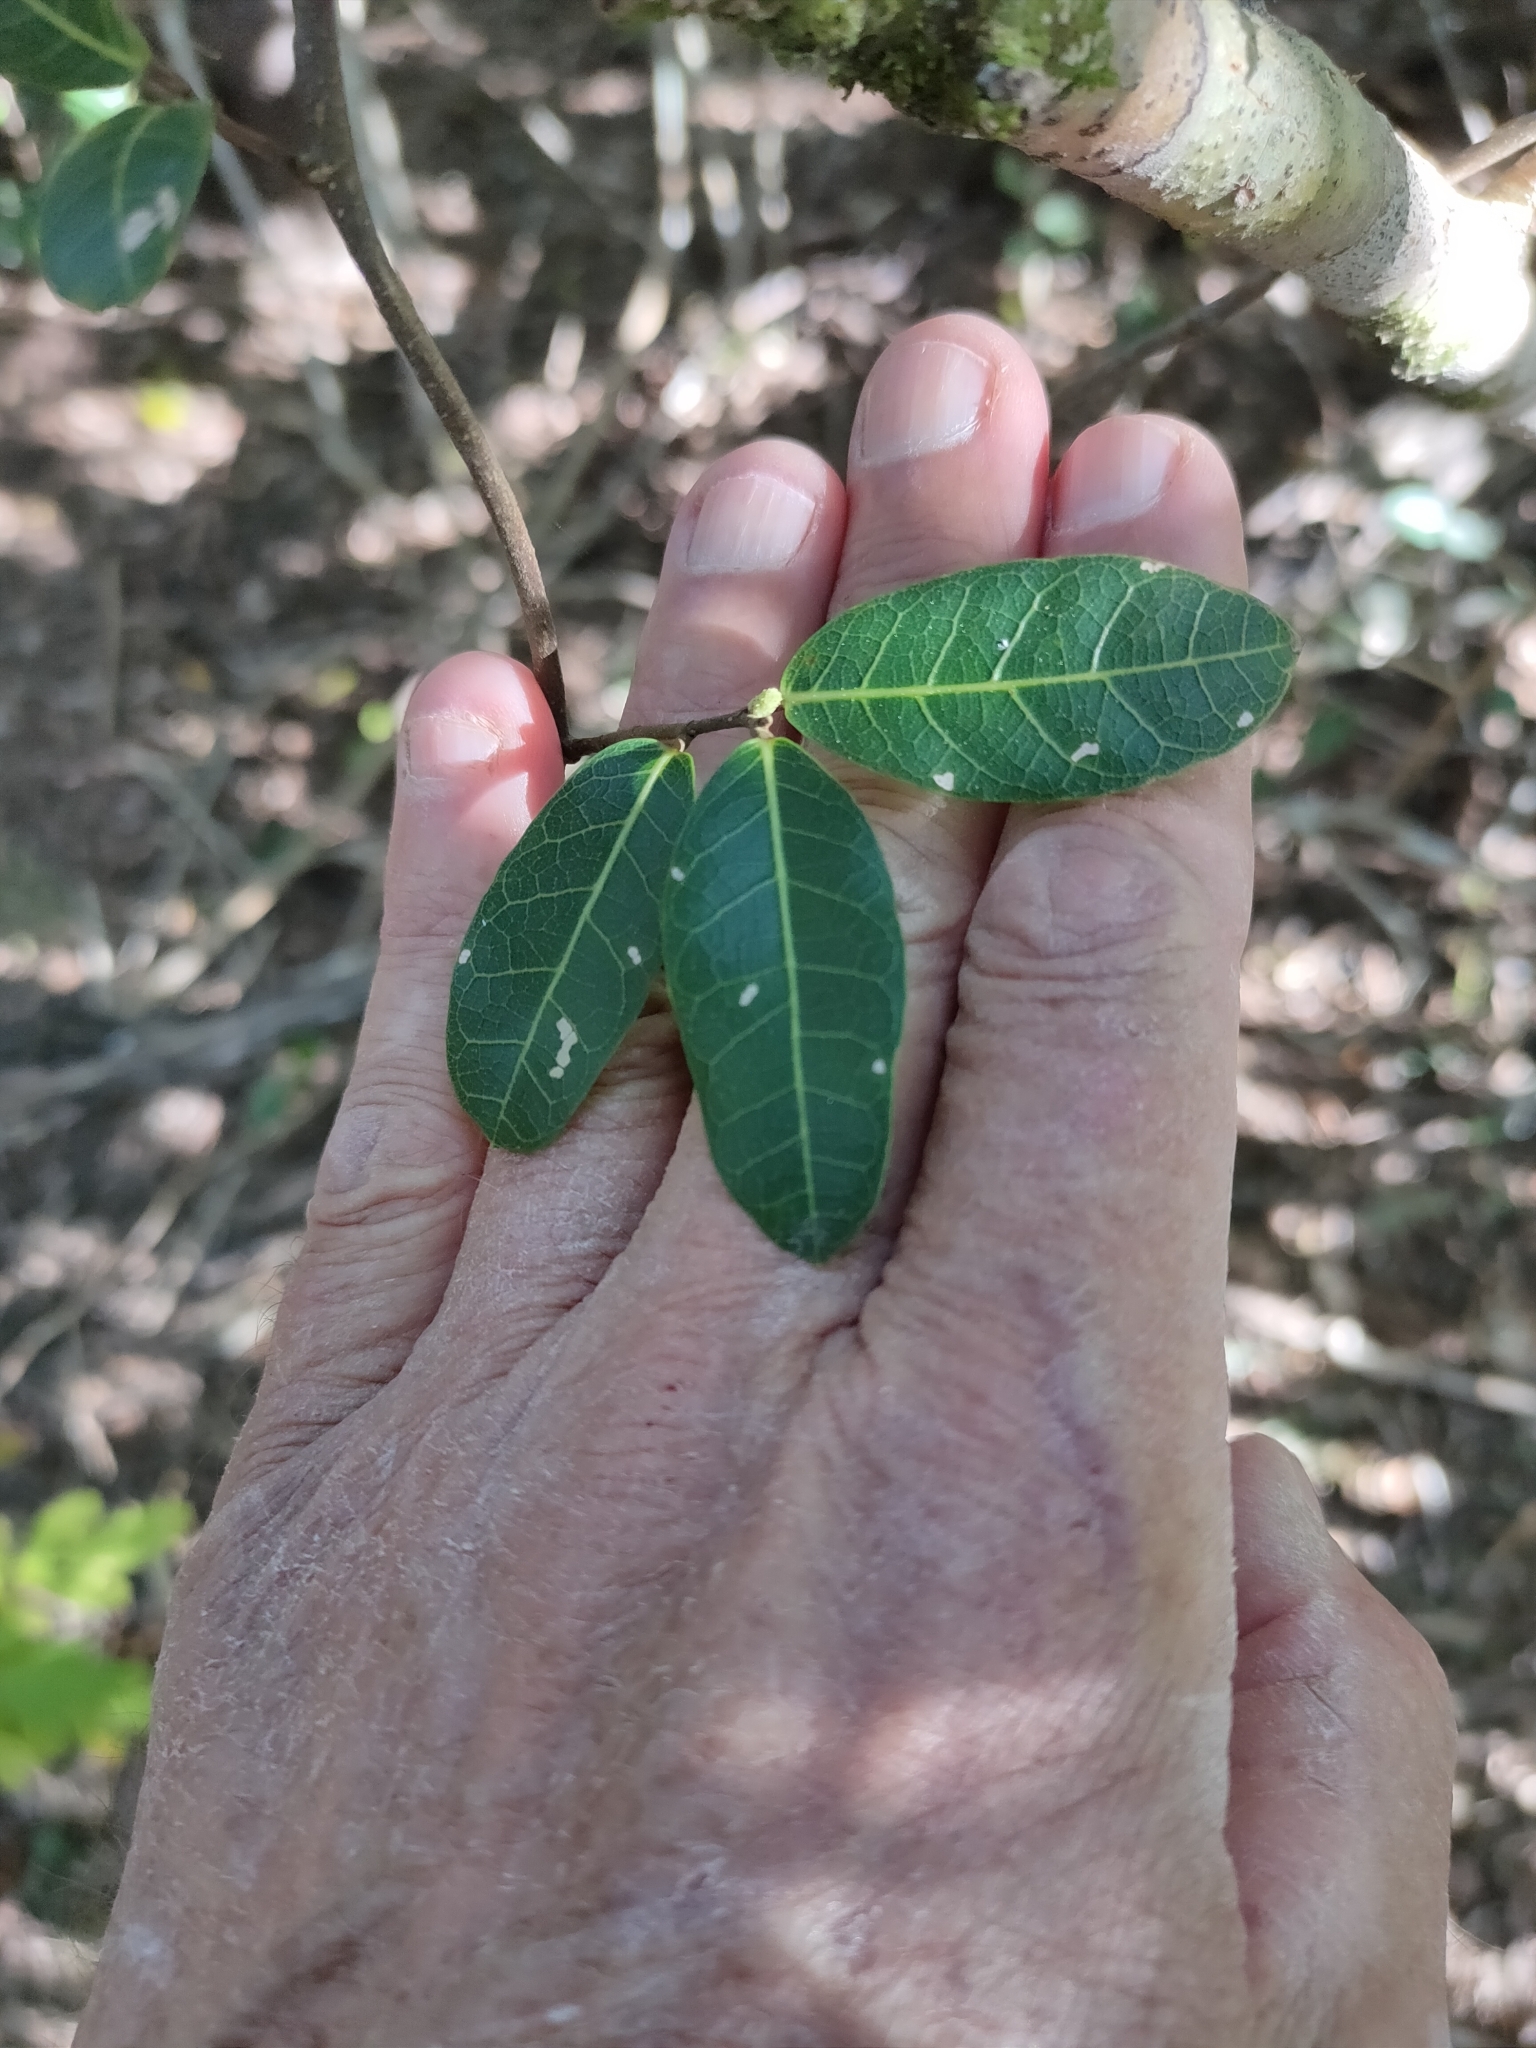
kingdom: Plantae
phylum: Tracheophyta
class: Magnoliopsida
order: Rosales
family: Moraceae
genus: Malaisia
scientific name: Malaisia scandens
